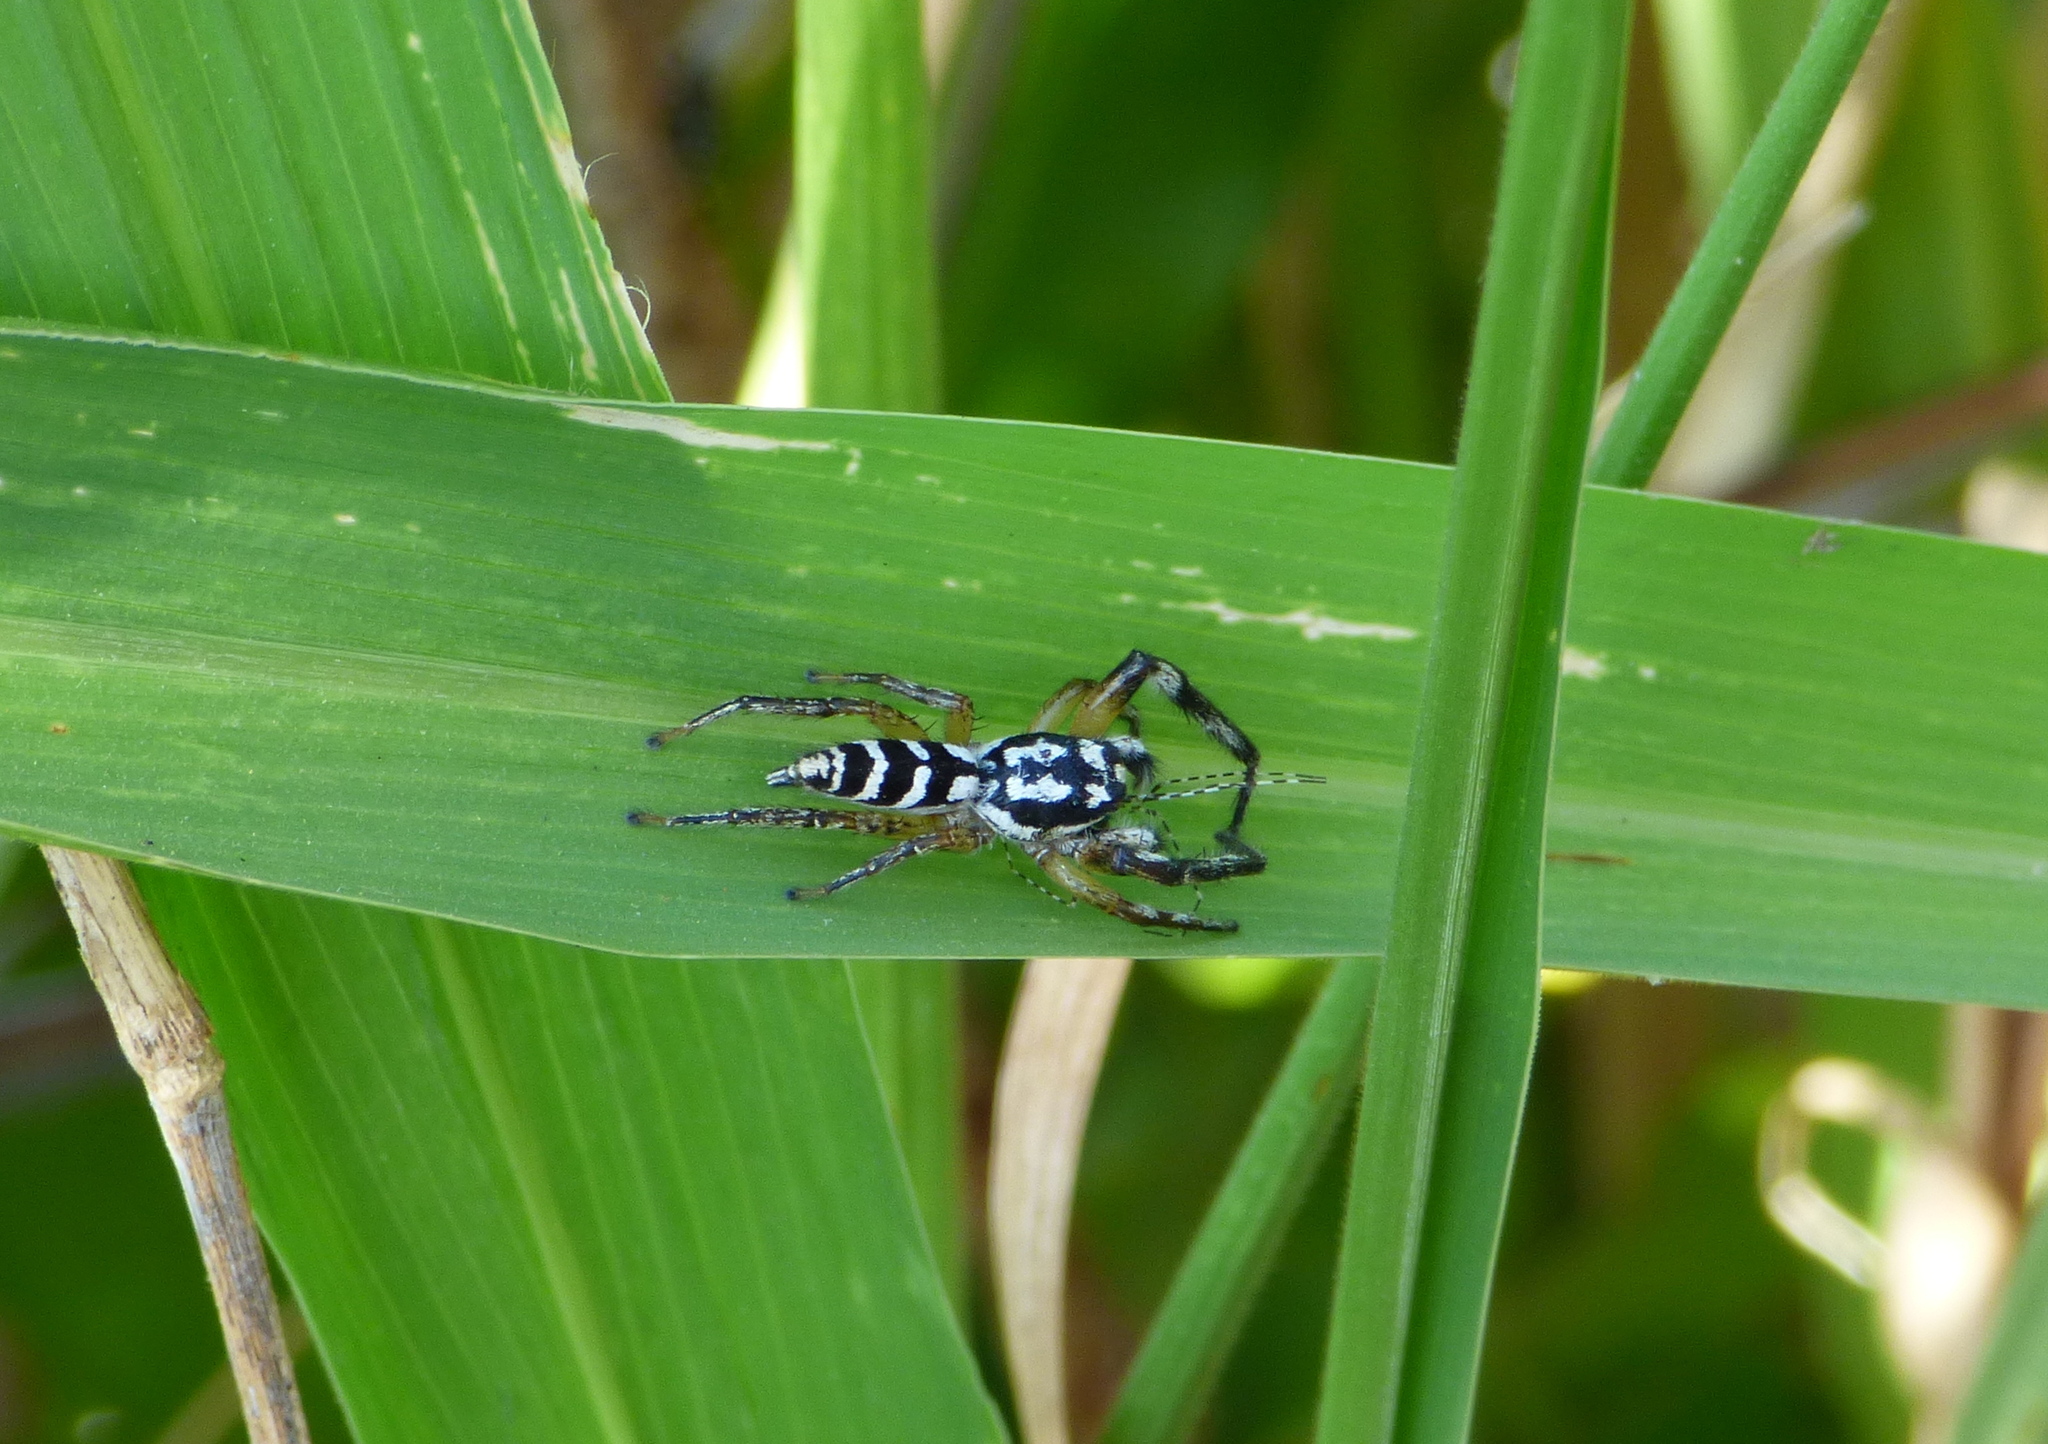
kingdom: Animalia
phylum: Arthropoda
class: Arachnida
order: Araneae
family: Salticidae
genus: Psecas
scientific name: Psecas chapoda
